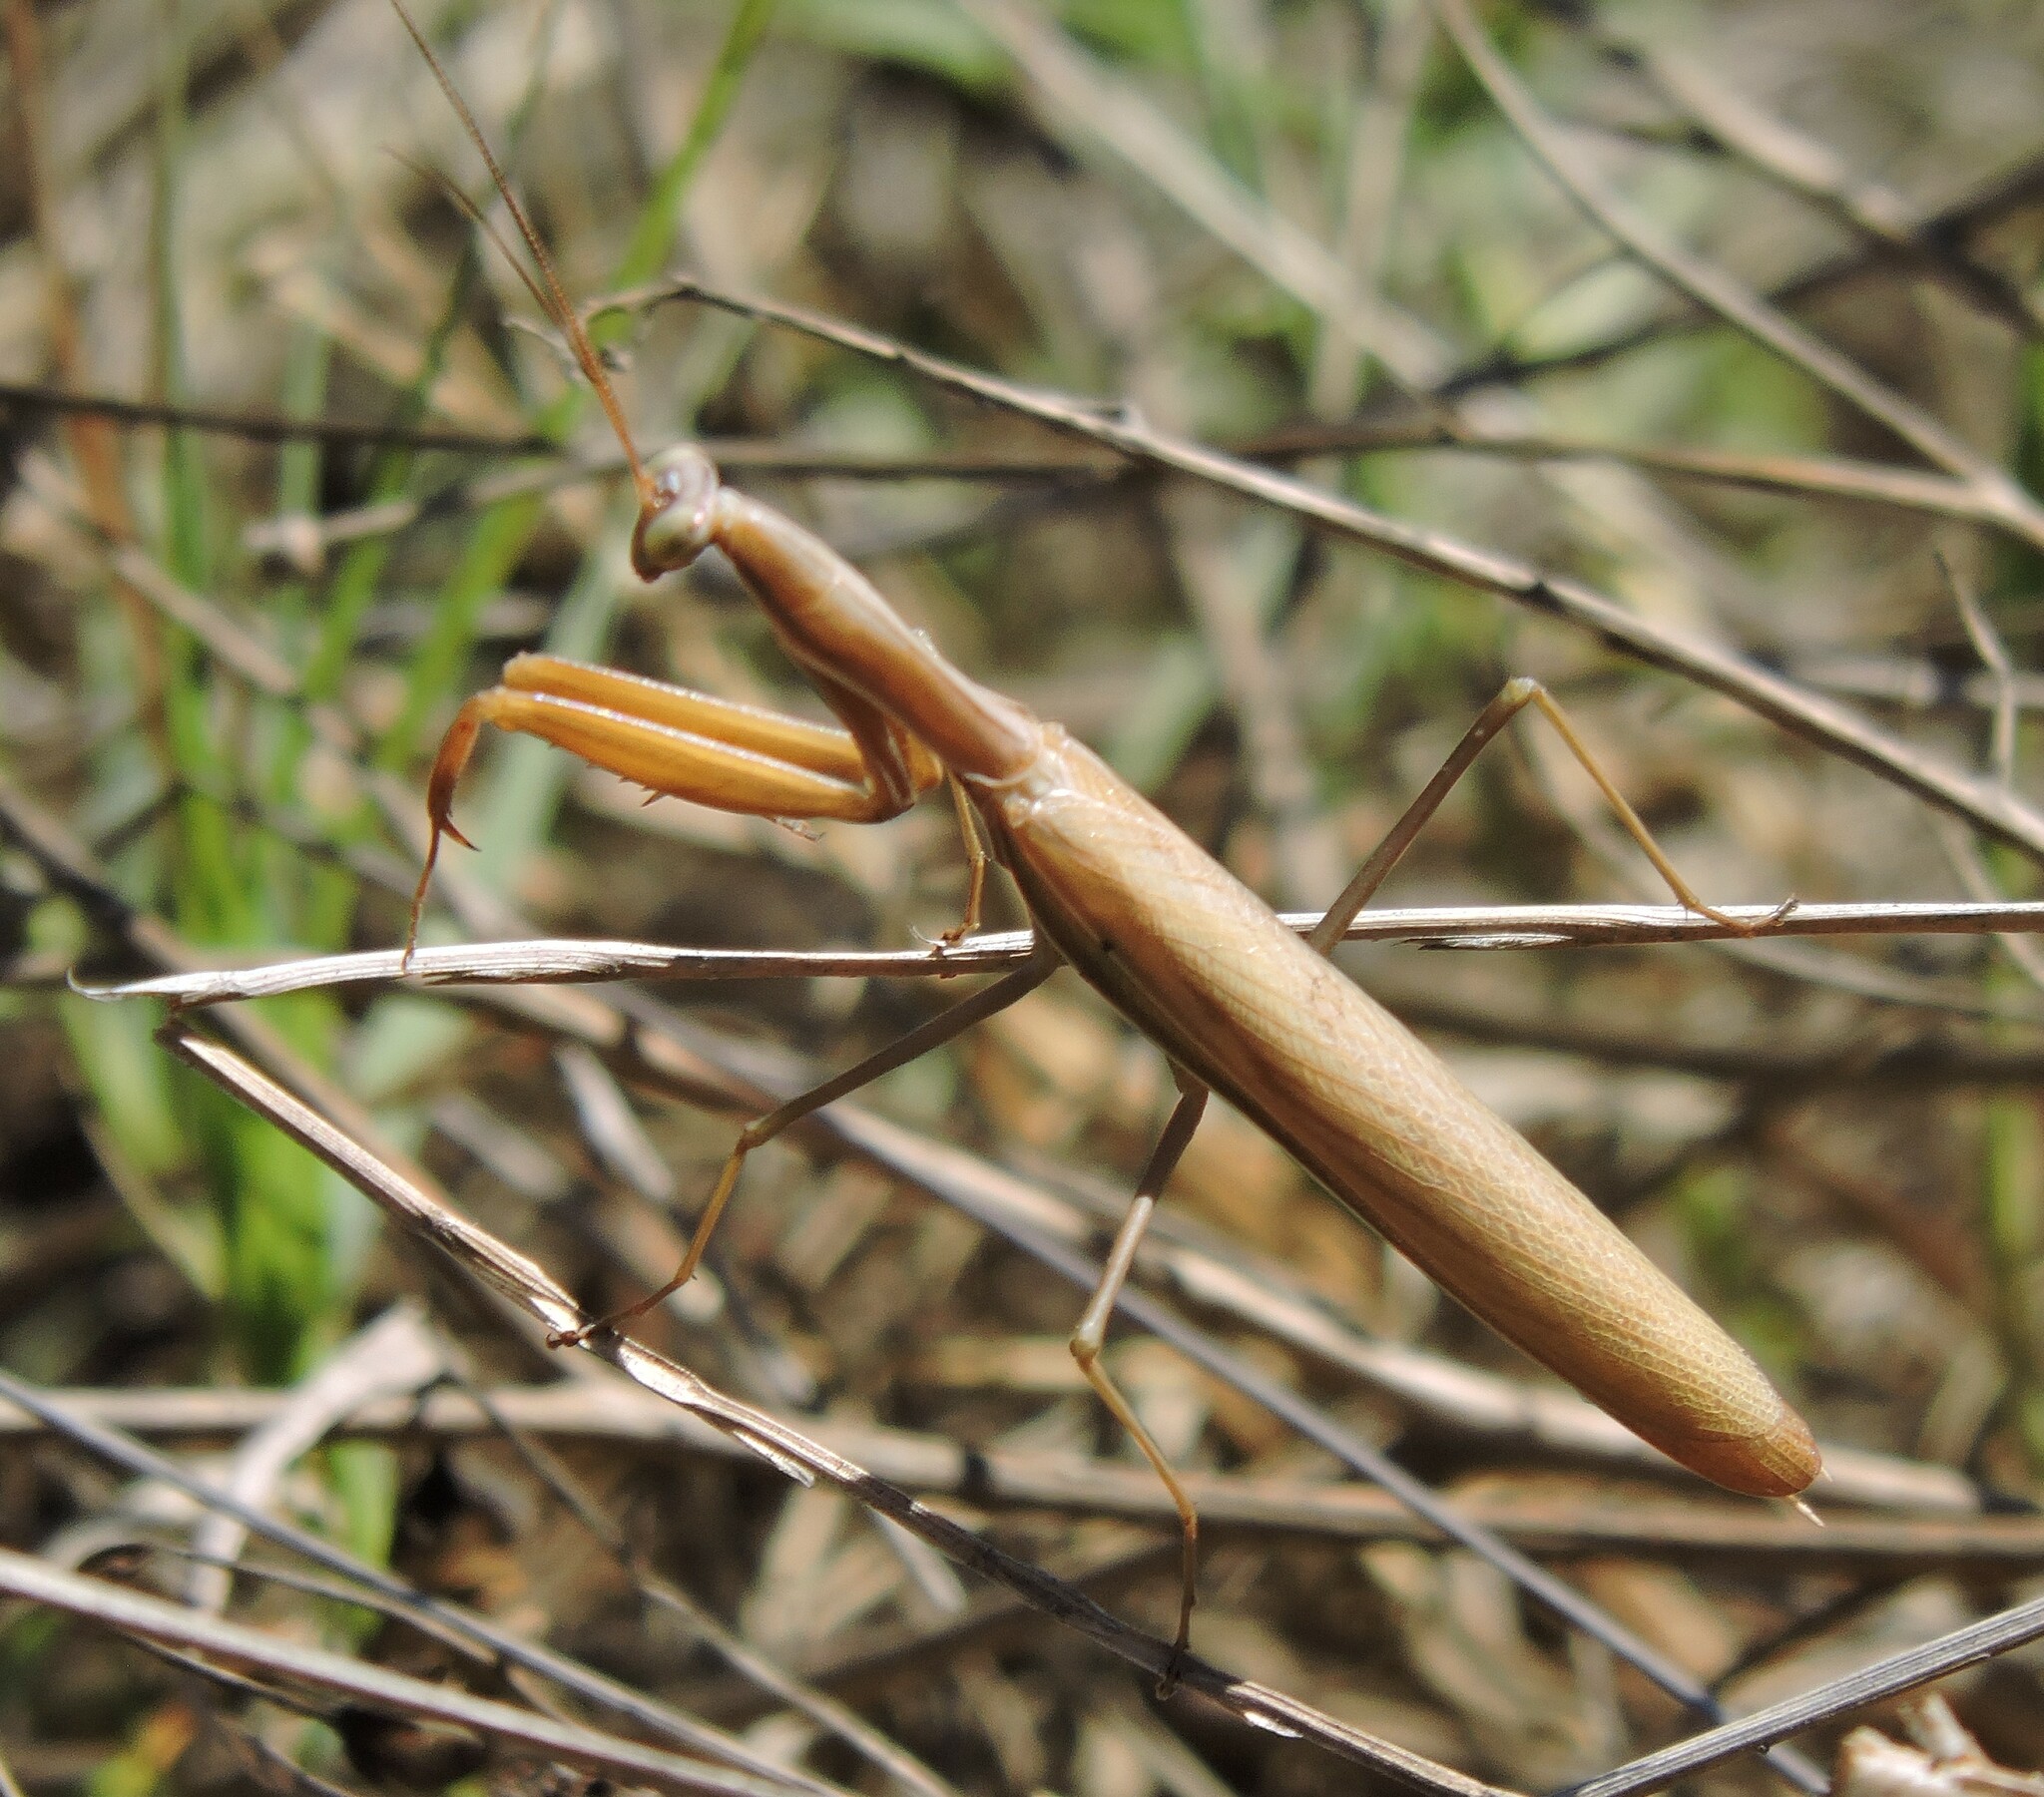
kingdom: Animalia
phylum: Arthropoda
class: Insecta
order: Mantodea
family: Mantidae
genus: Mantis
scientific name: Mantis religiosa
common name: Praying mantis
